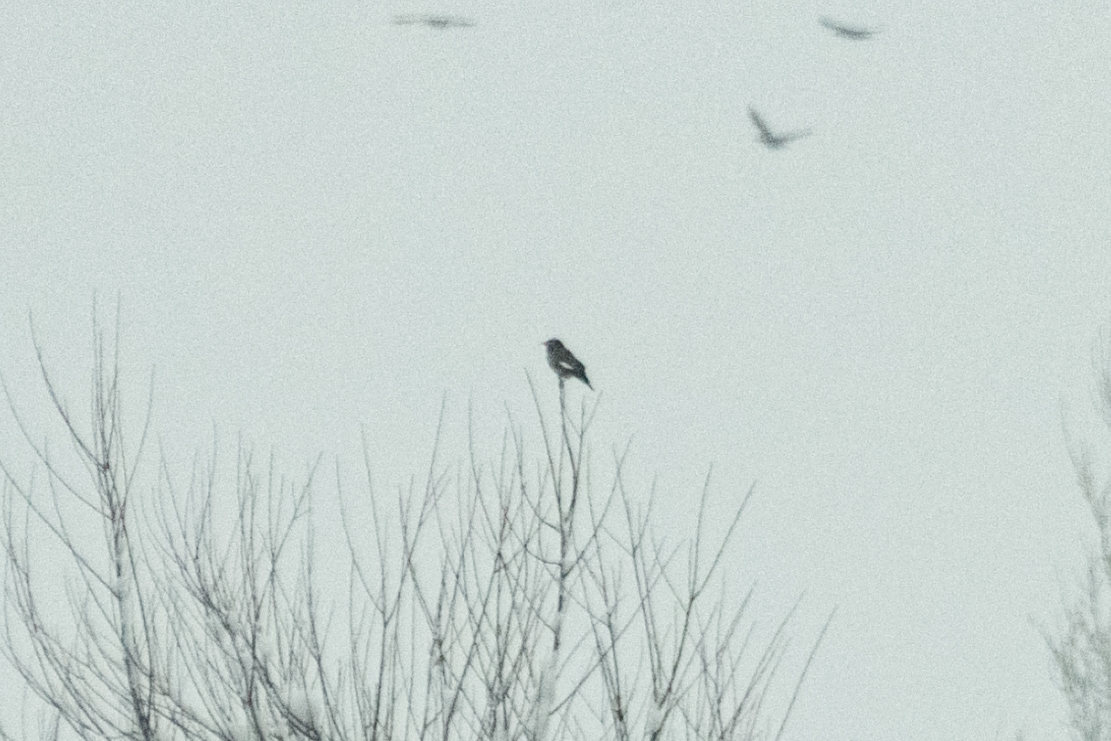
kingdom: Animalia
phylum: Chordata
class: Aves
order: Passeriformes
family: Sturnidae
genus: Acridotheres
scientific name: Acridotheres tristis
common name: Common myna
